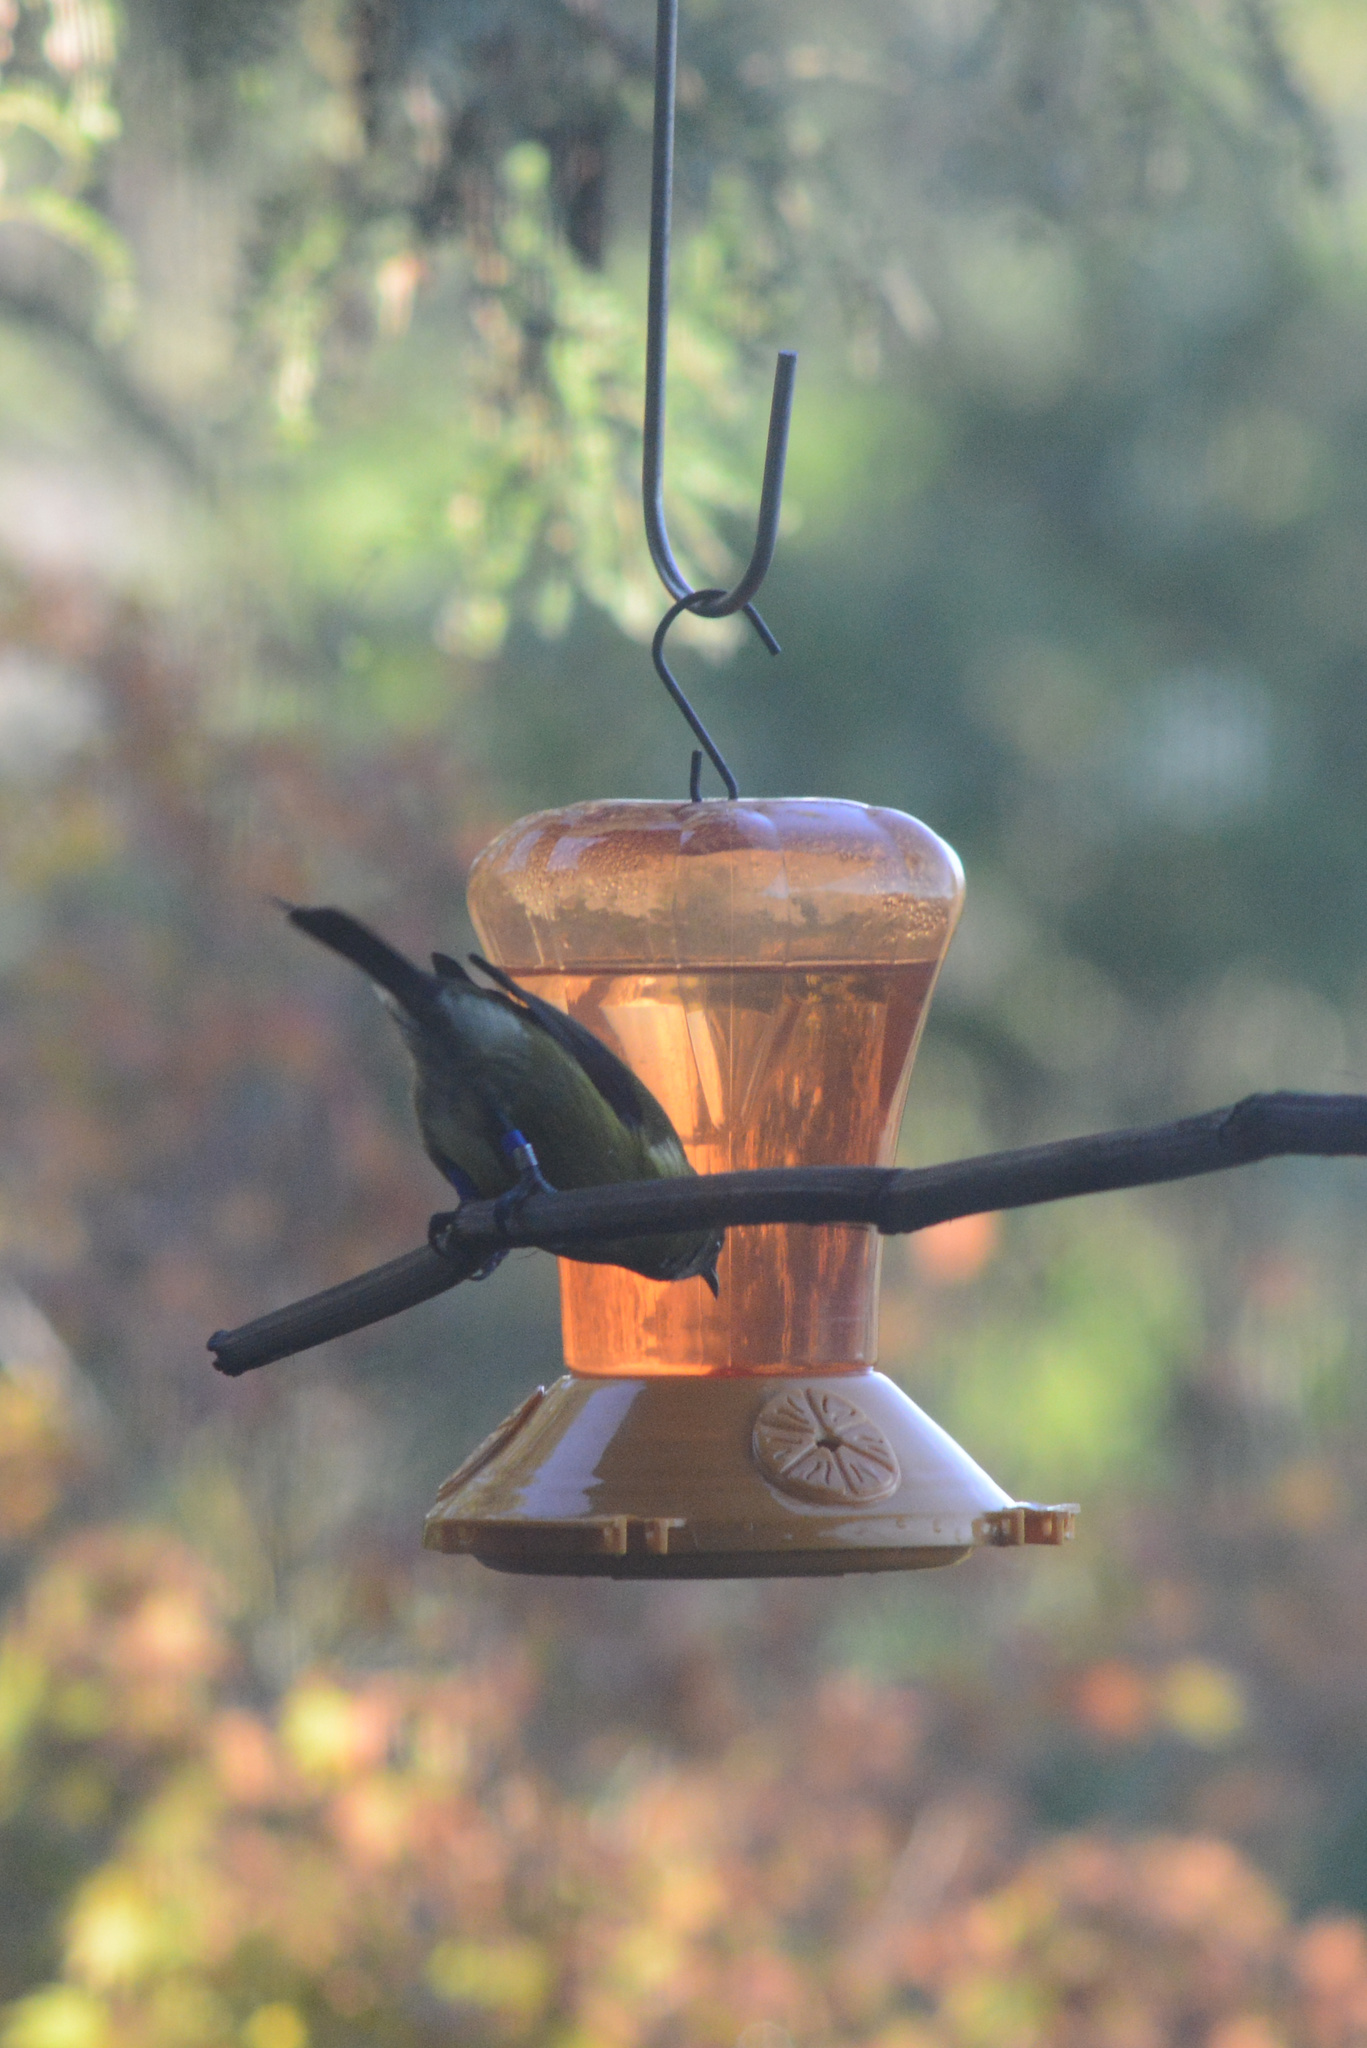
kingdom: Animalia
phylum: Chordata
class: Aves
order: Passeriformes
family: Meliphagidae
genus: Anthornis
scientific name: Anthornis melanura
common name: New zealand bellbird
